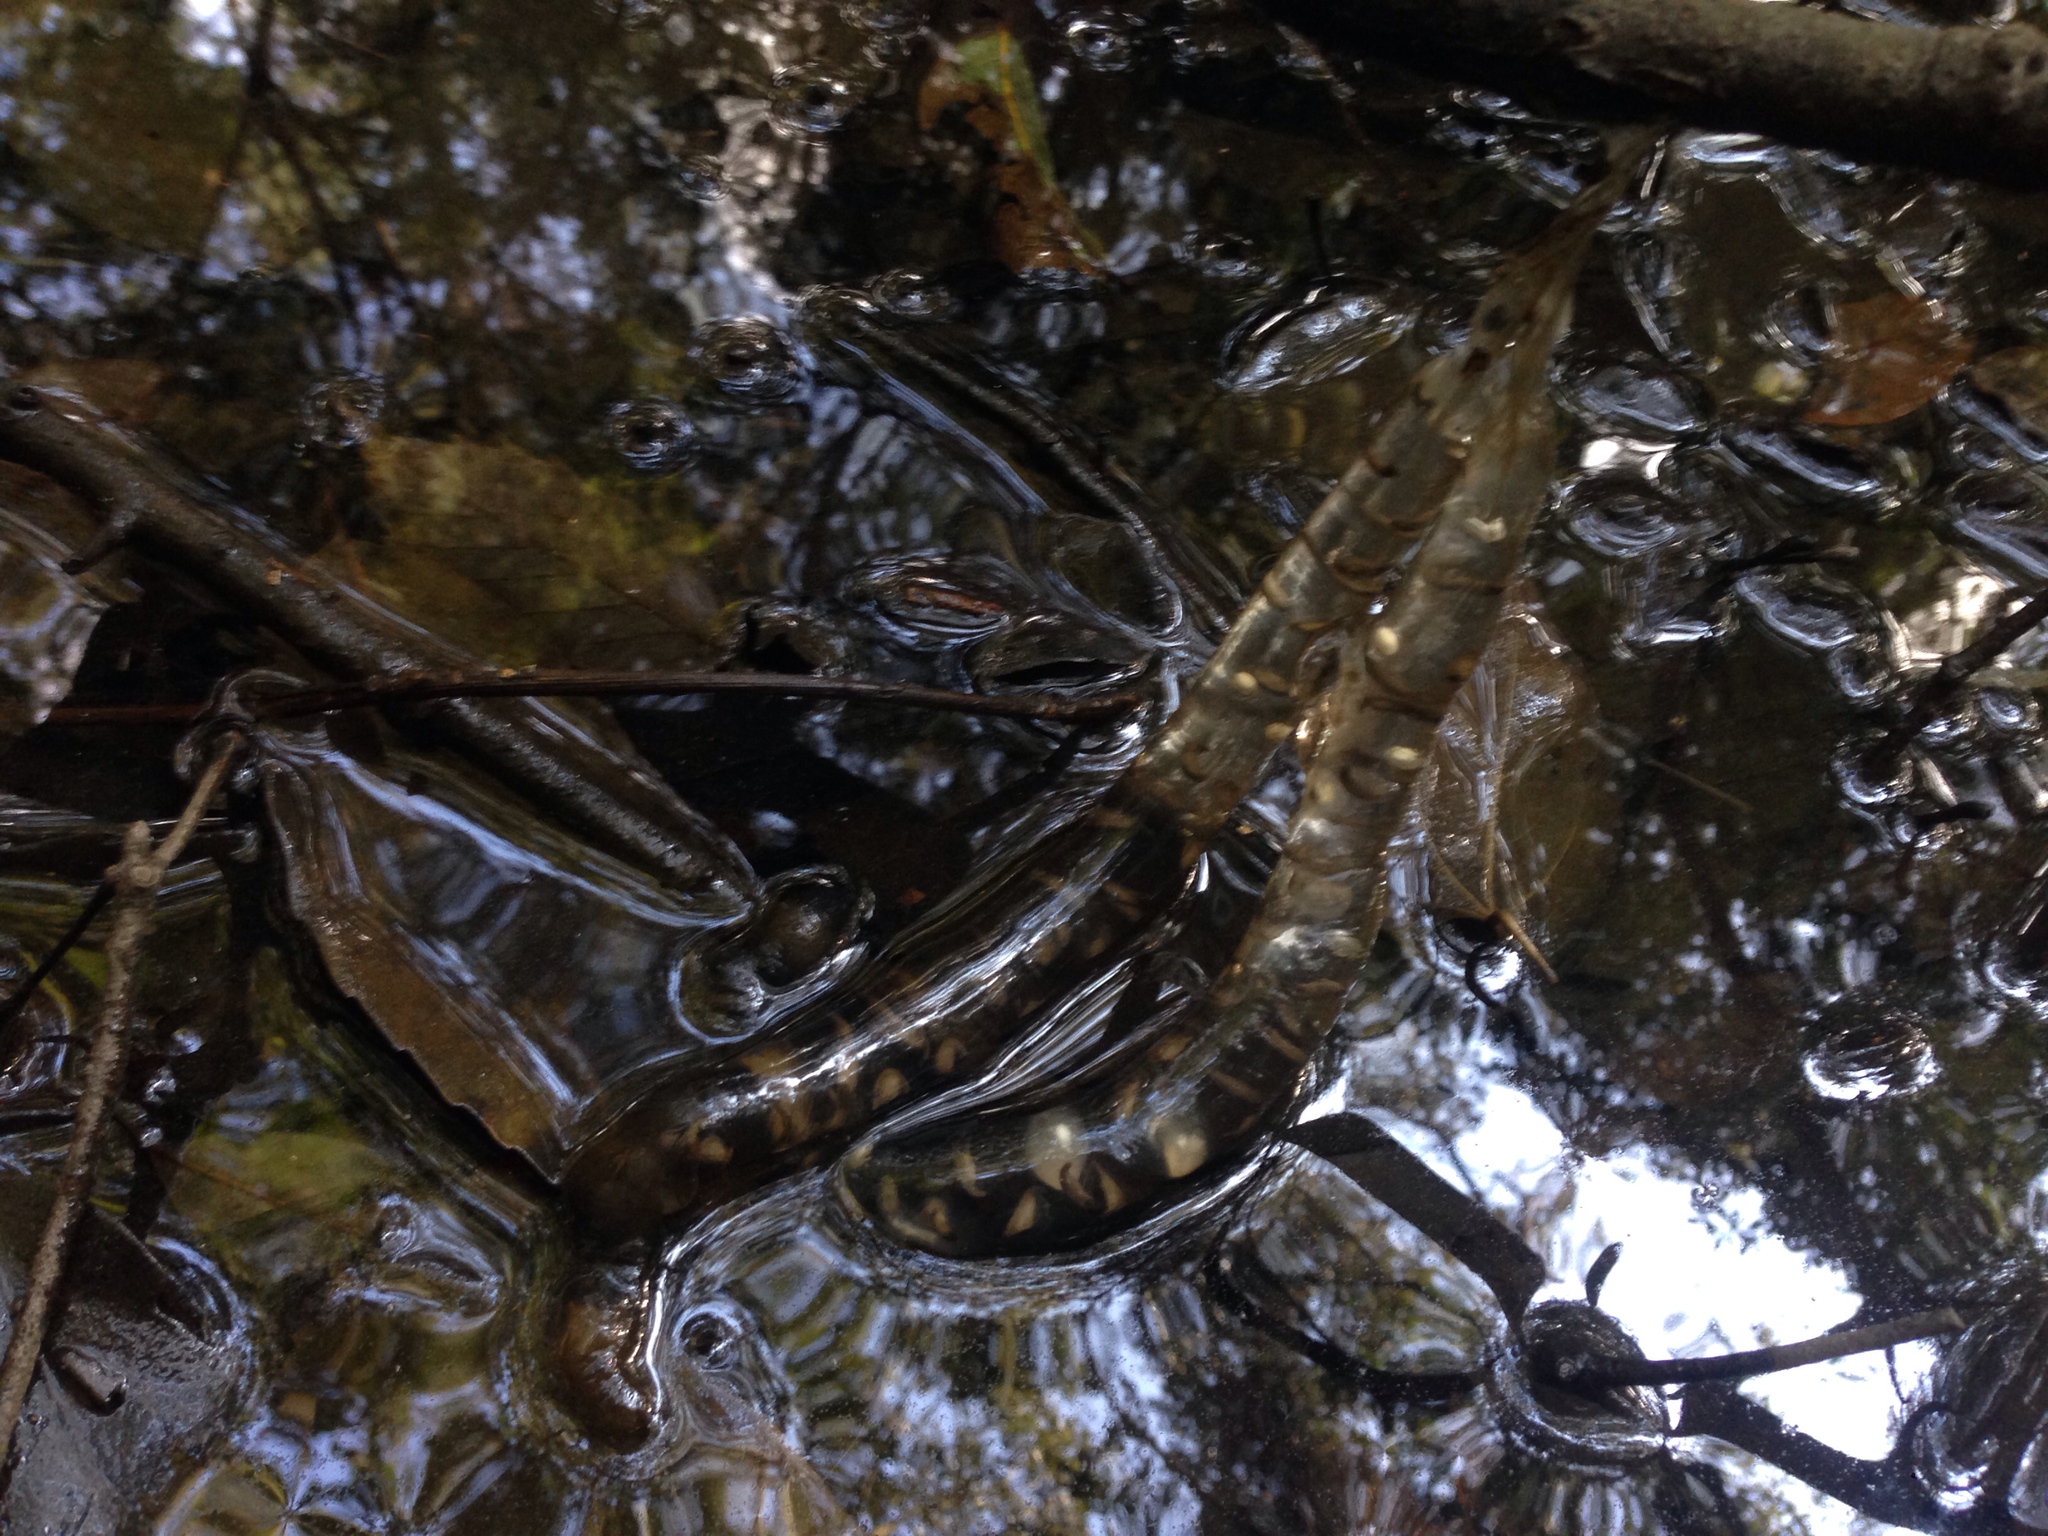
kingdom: Animalia
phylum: Chordata
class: Amphibia
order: Caudata
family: Hynobiidae
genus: Hynobius
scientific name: Hynobius quelpaertensis
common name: Cheju salamander
